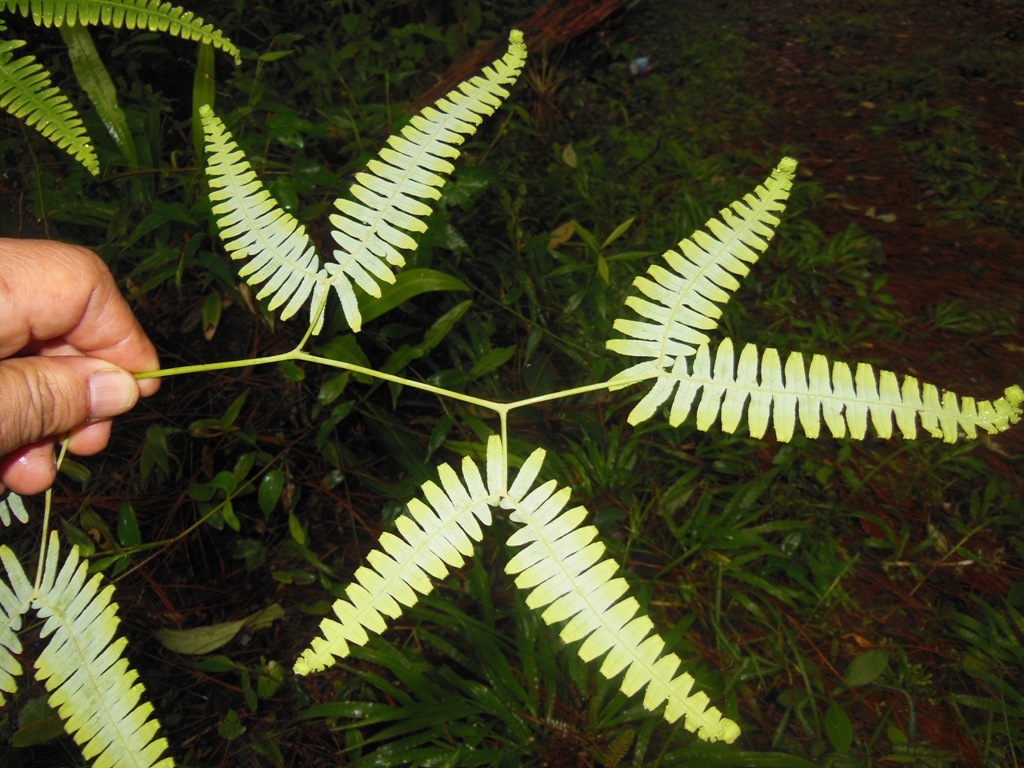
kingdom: Plantae
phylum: Tracheophyta
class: Polypodiopsida
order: Gleicheniales
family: Gleicheniaceae
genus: Gleichenella
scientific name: Gleichenella pectinata
